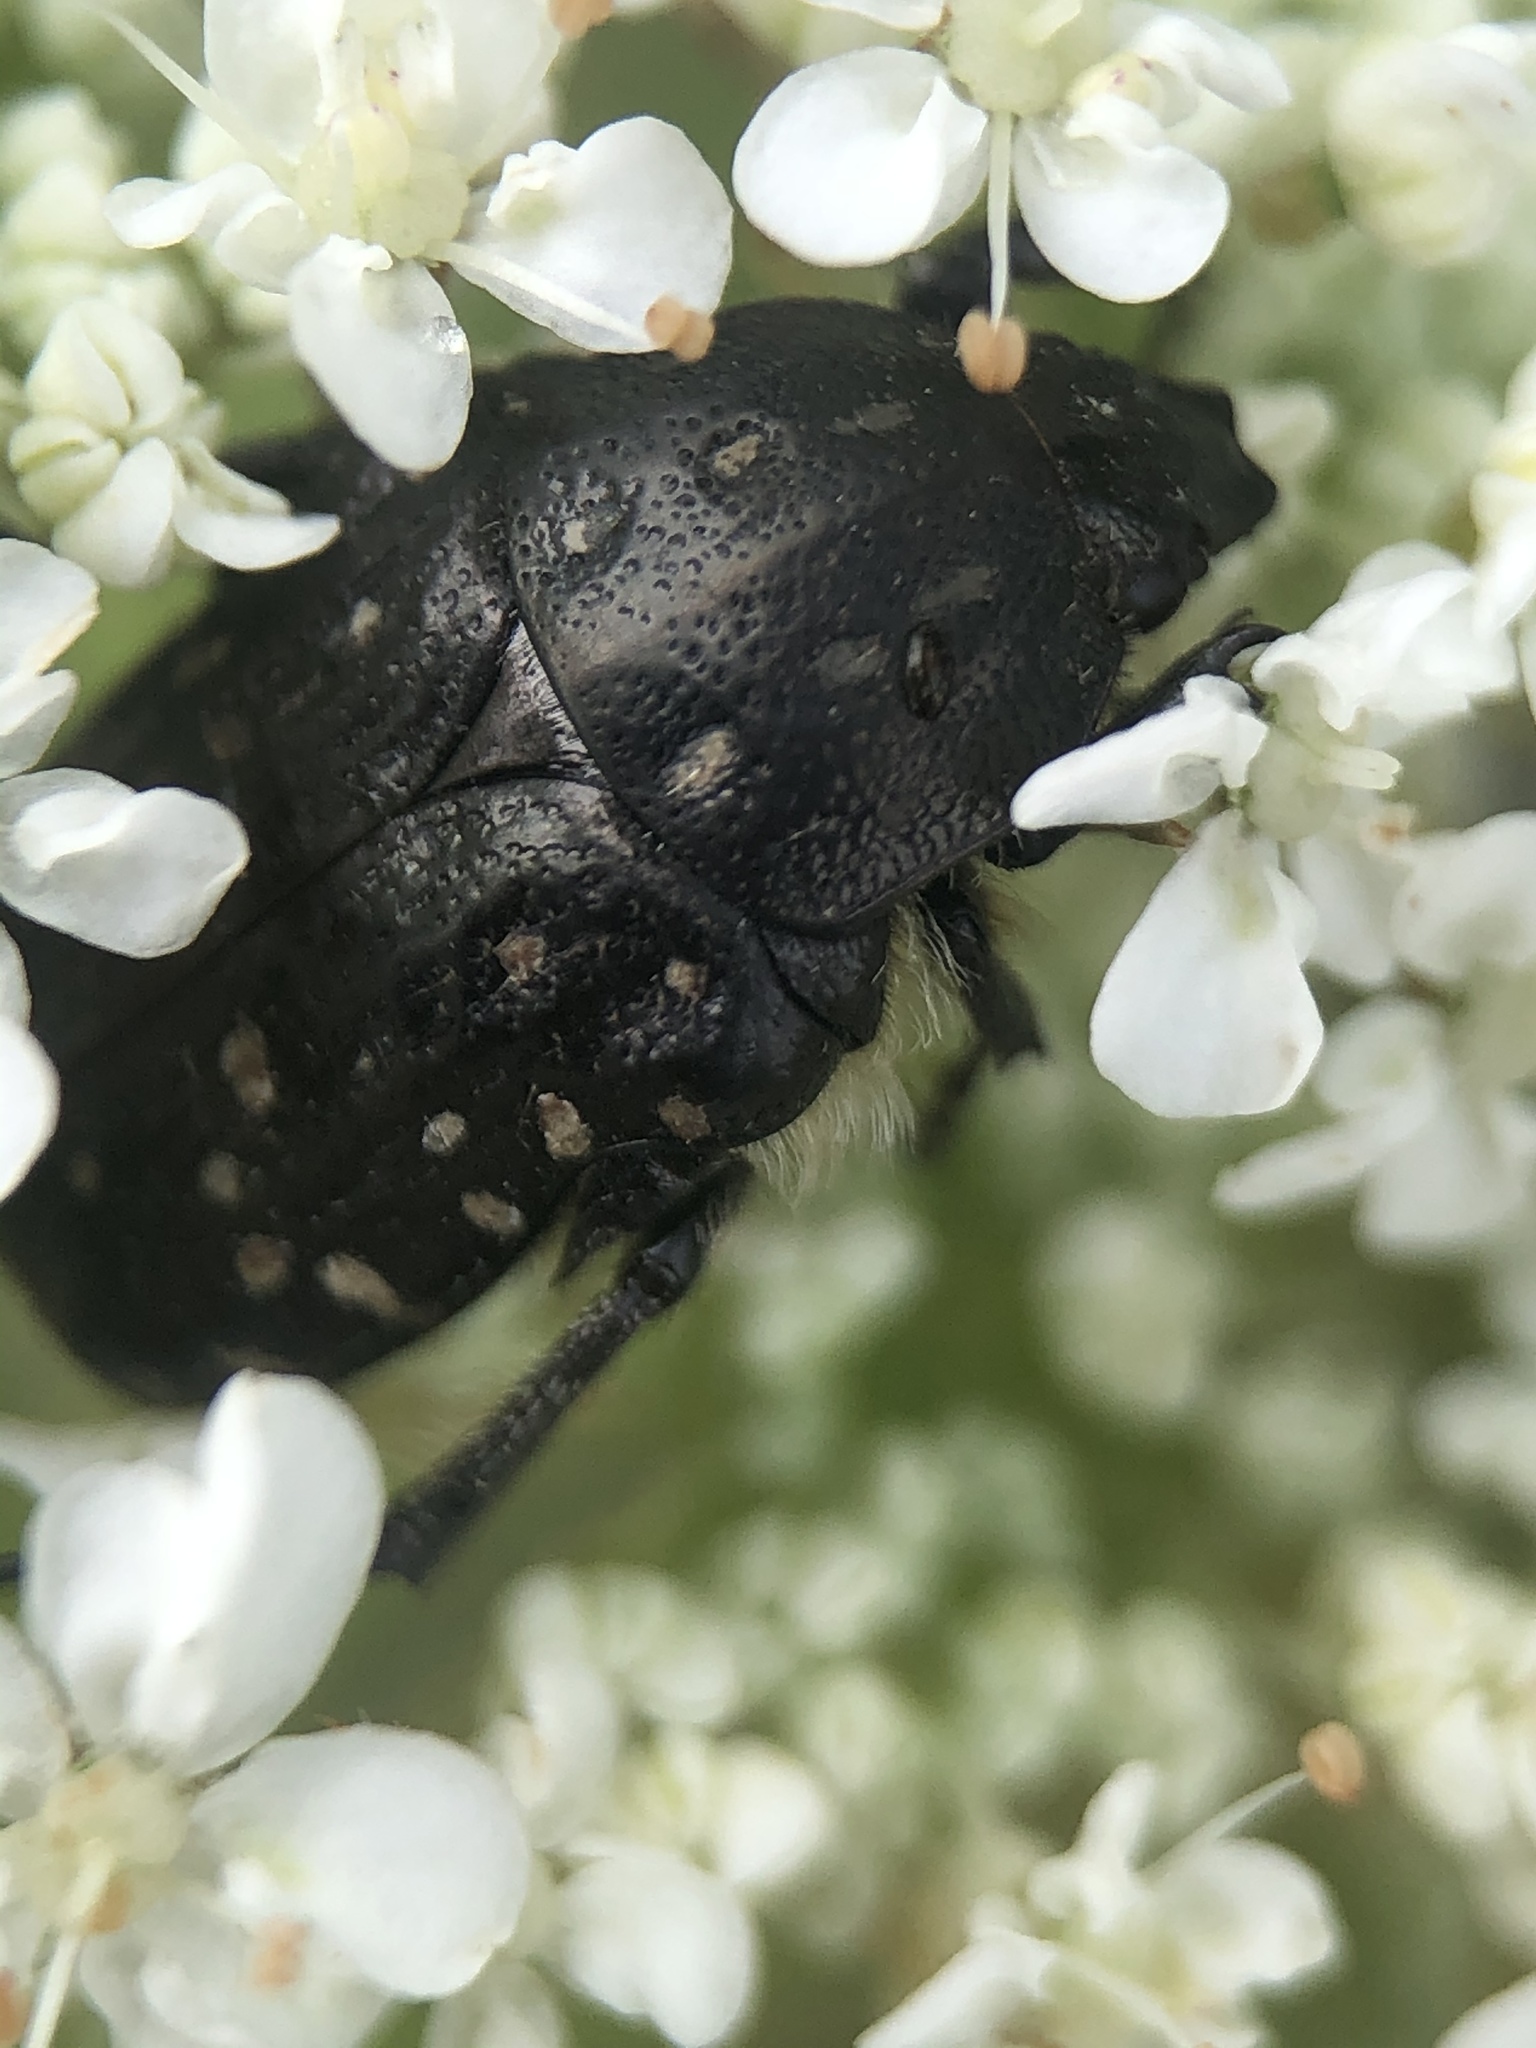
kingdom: Animalia
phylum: Arthropoda
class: Insecta
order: Coleoptera
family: Scarabaeidae
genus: Oxythyrea
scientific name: Oxythyrea funesta
